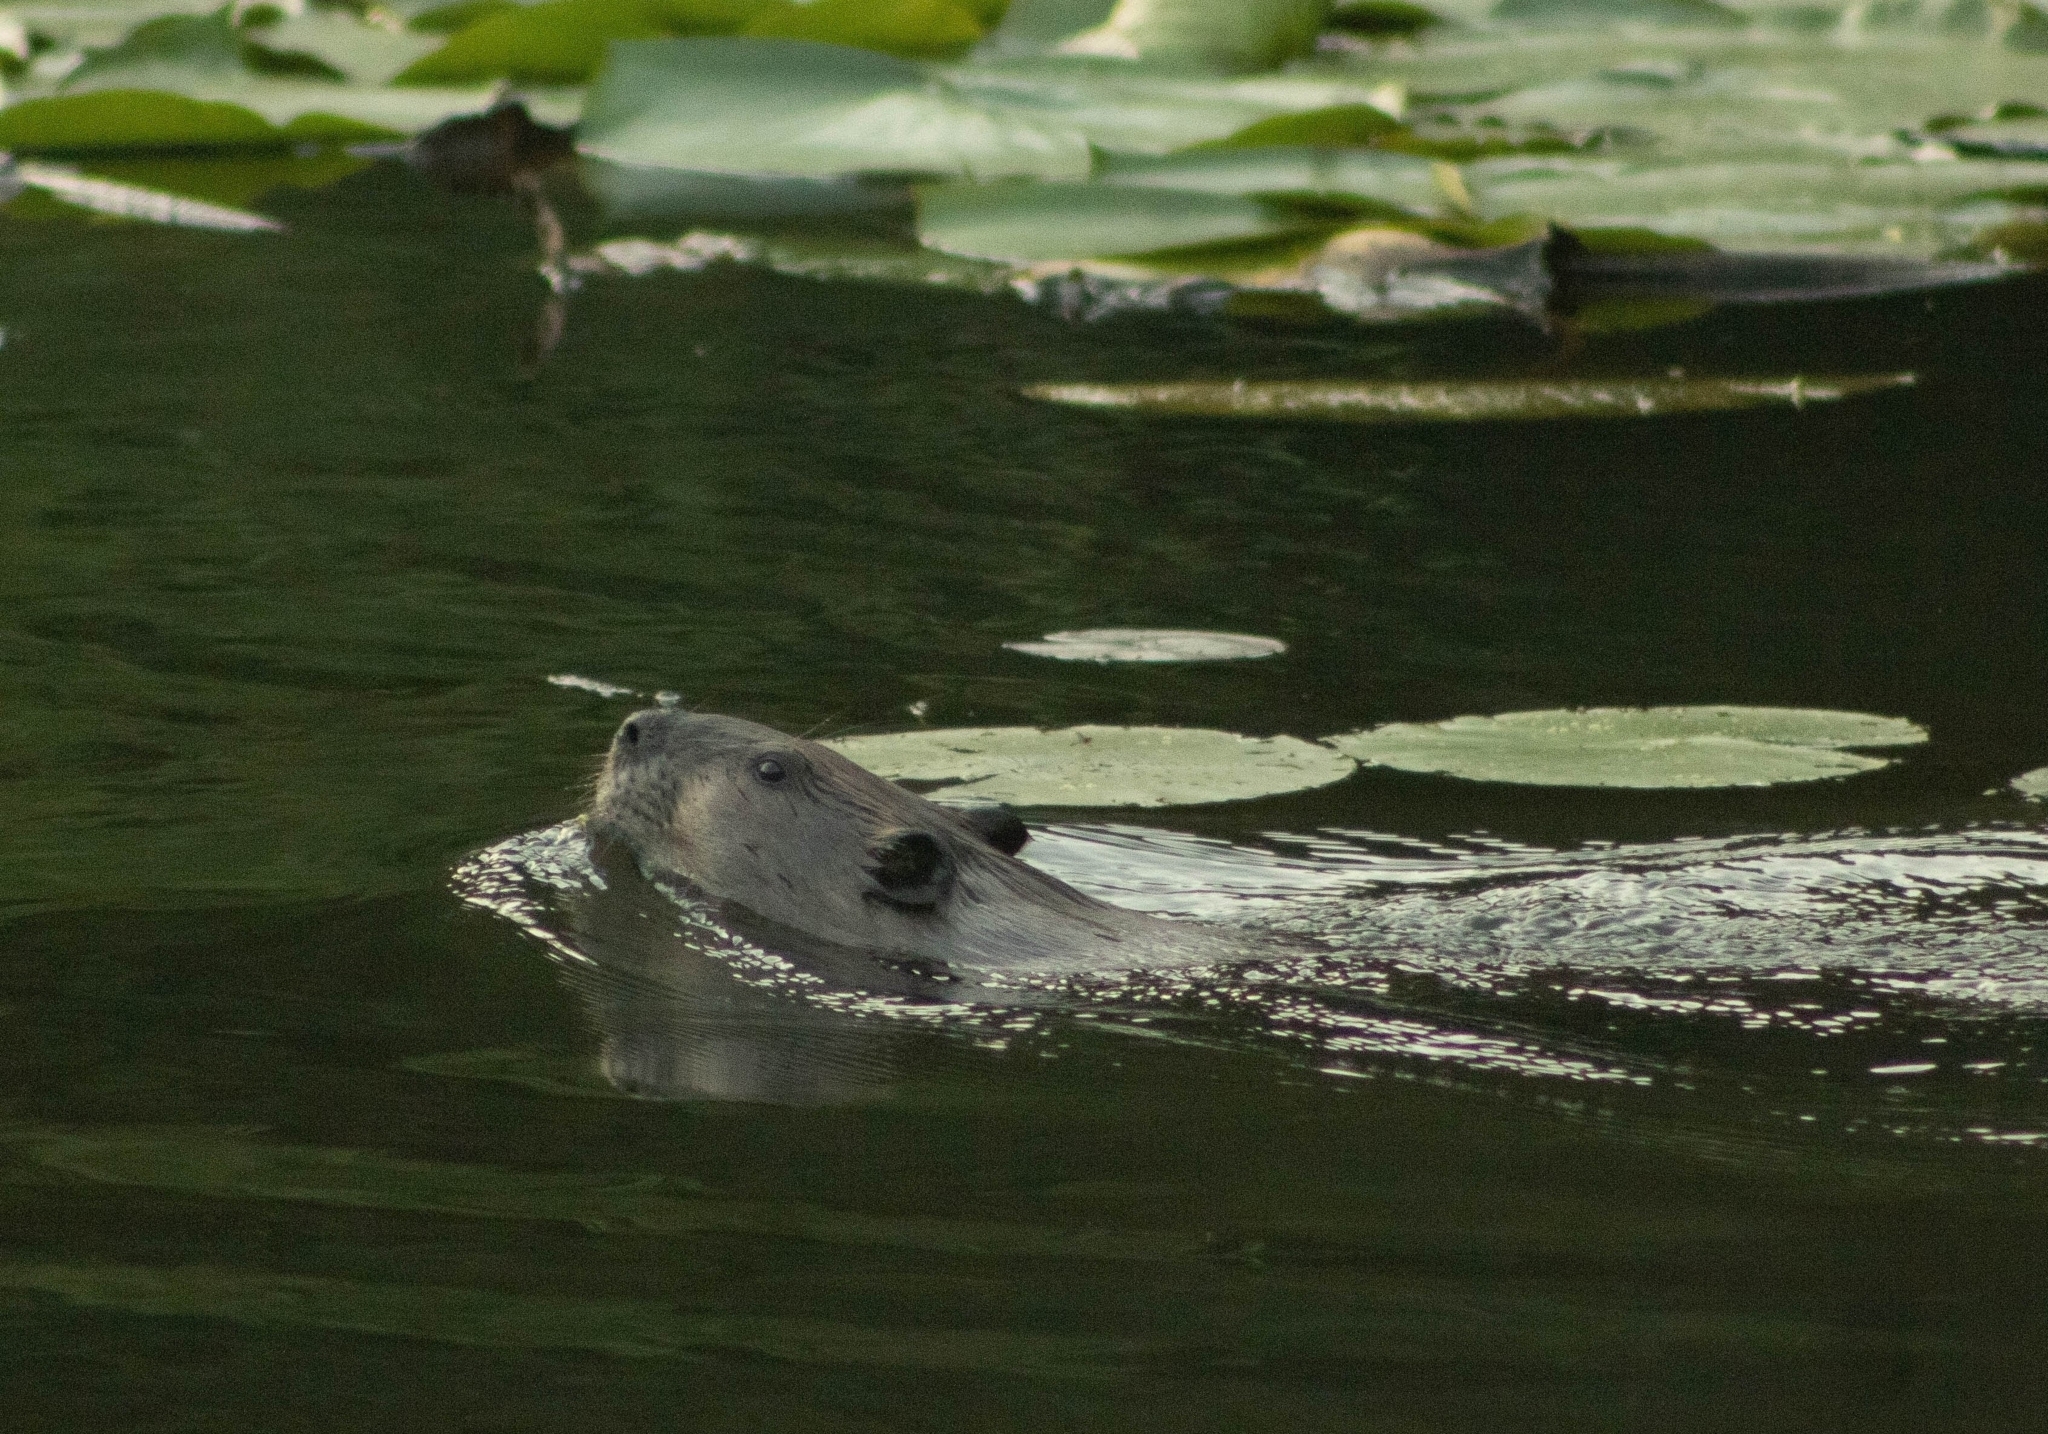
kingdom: Animalia
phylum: Chordata
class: Mammalia
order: Rodentia
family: Castoridae
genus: Castor
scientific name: Castor canadensis
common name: American beaver
